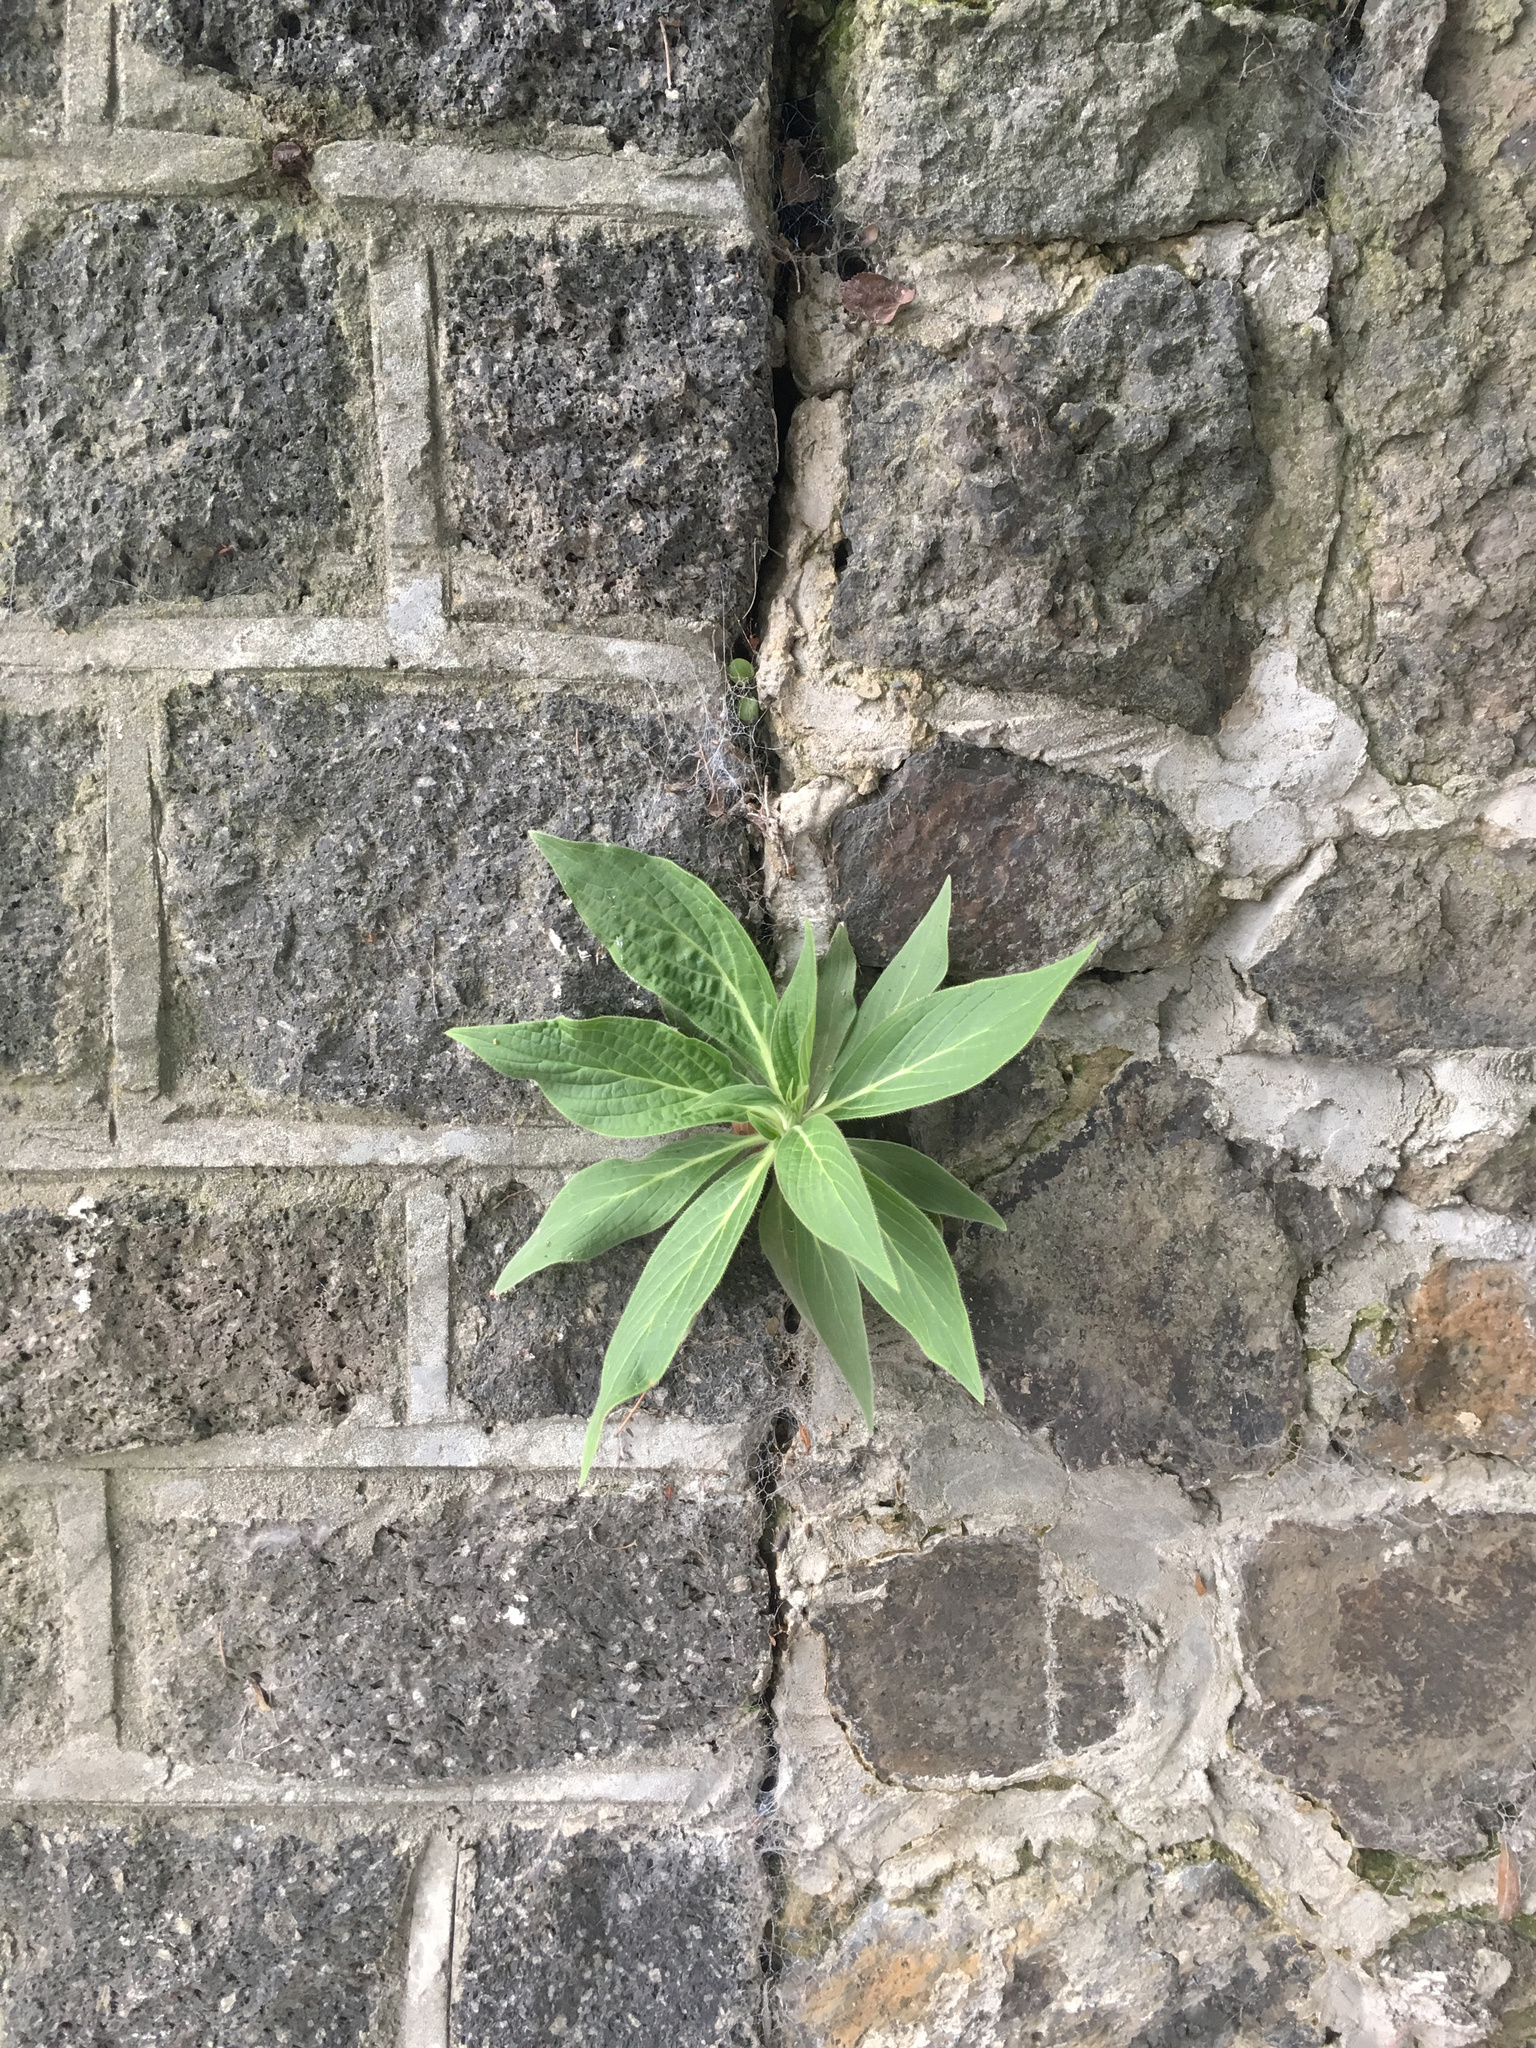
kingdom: Plantae
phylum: Tracheophyta
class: Magnoliopsida
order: Boraginales
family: Boraginaceae
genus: Echium
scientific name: Echium candicans
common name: Pride of madeira
